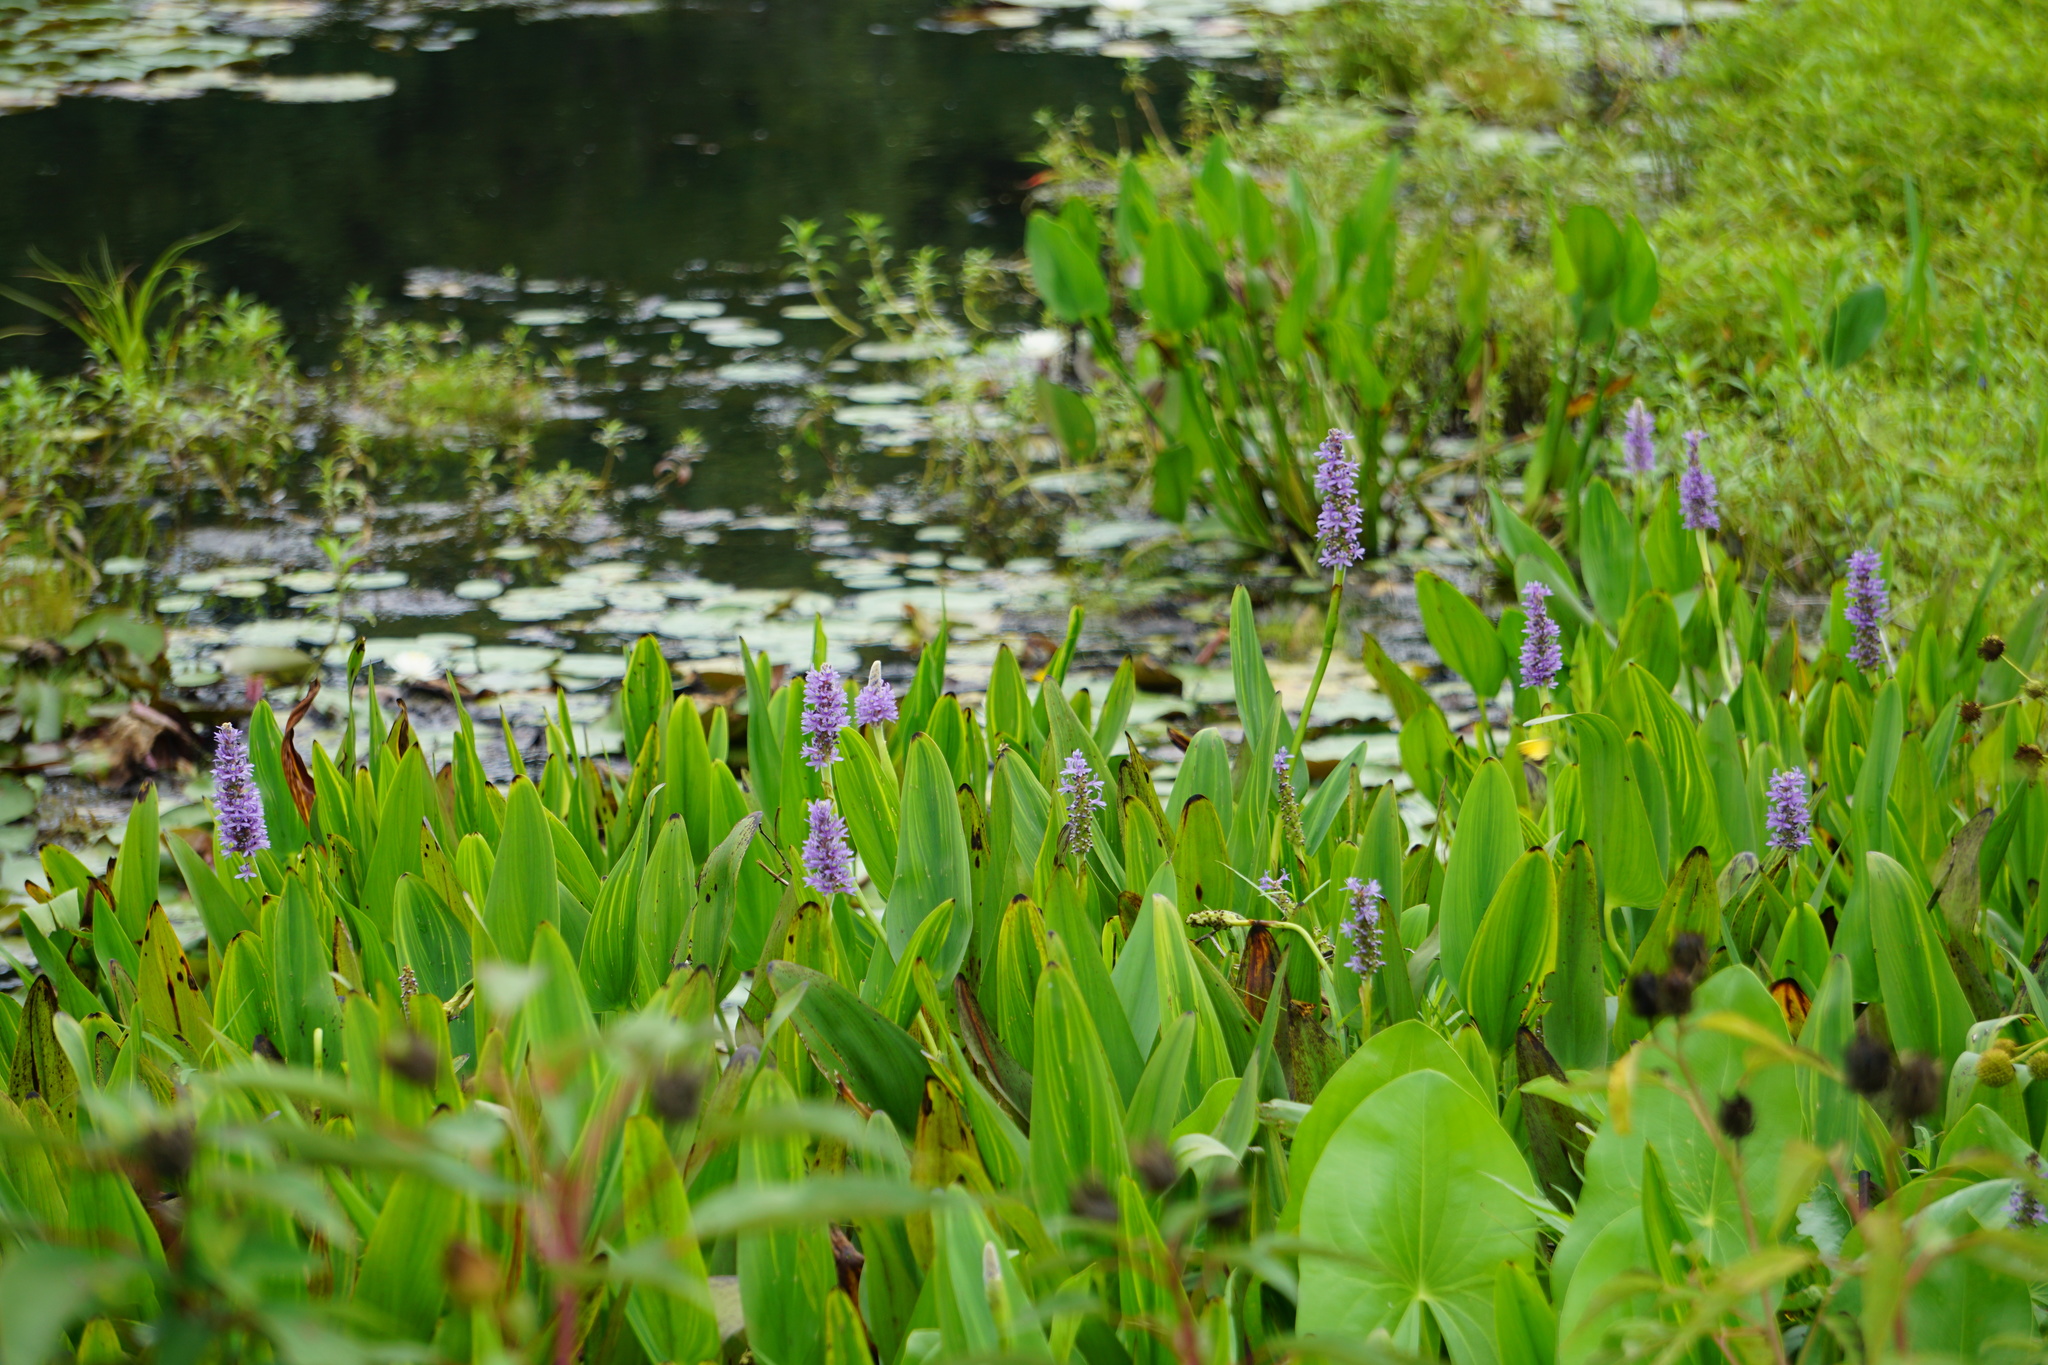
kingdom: Plantae
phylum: Tracheophyta
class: Liliopsida
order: Commelinales
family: Pontederiaceae
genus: Pontederia
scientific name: Pontederia cordata
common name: Pickerelweed
